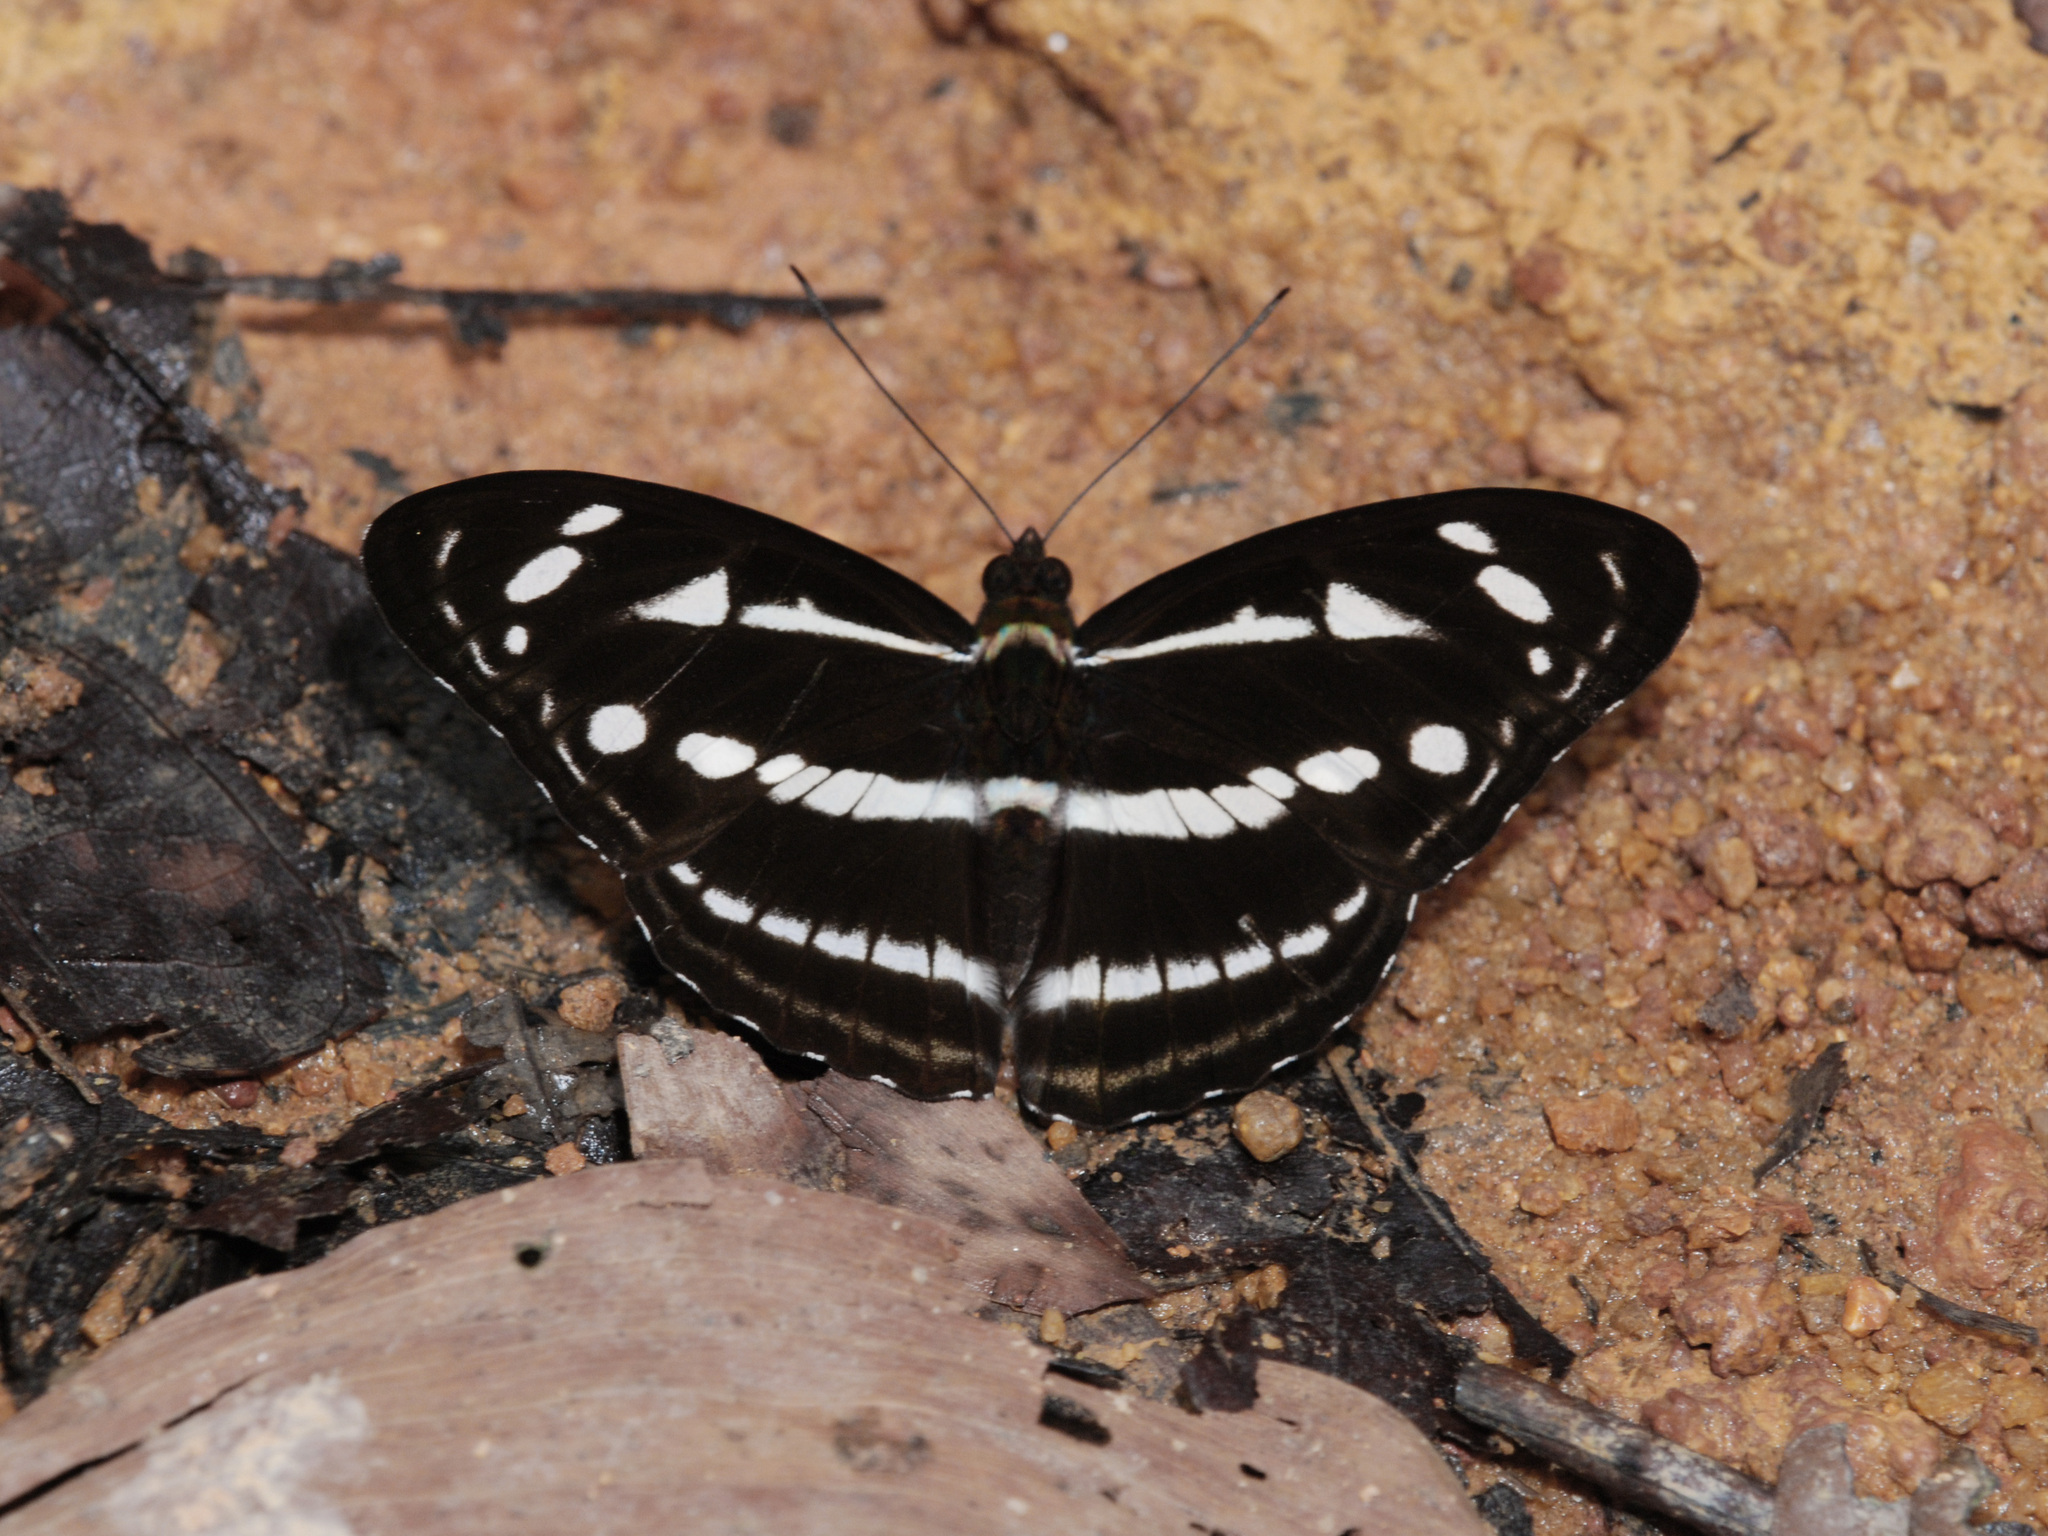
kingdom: Animalia
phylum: Arthropoda
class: Insecta
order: Lepidoptera
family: Nymphalidae
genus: Parathyma
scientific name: Parathyma kanwa
